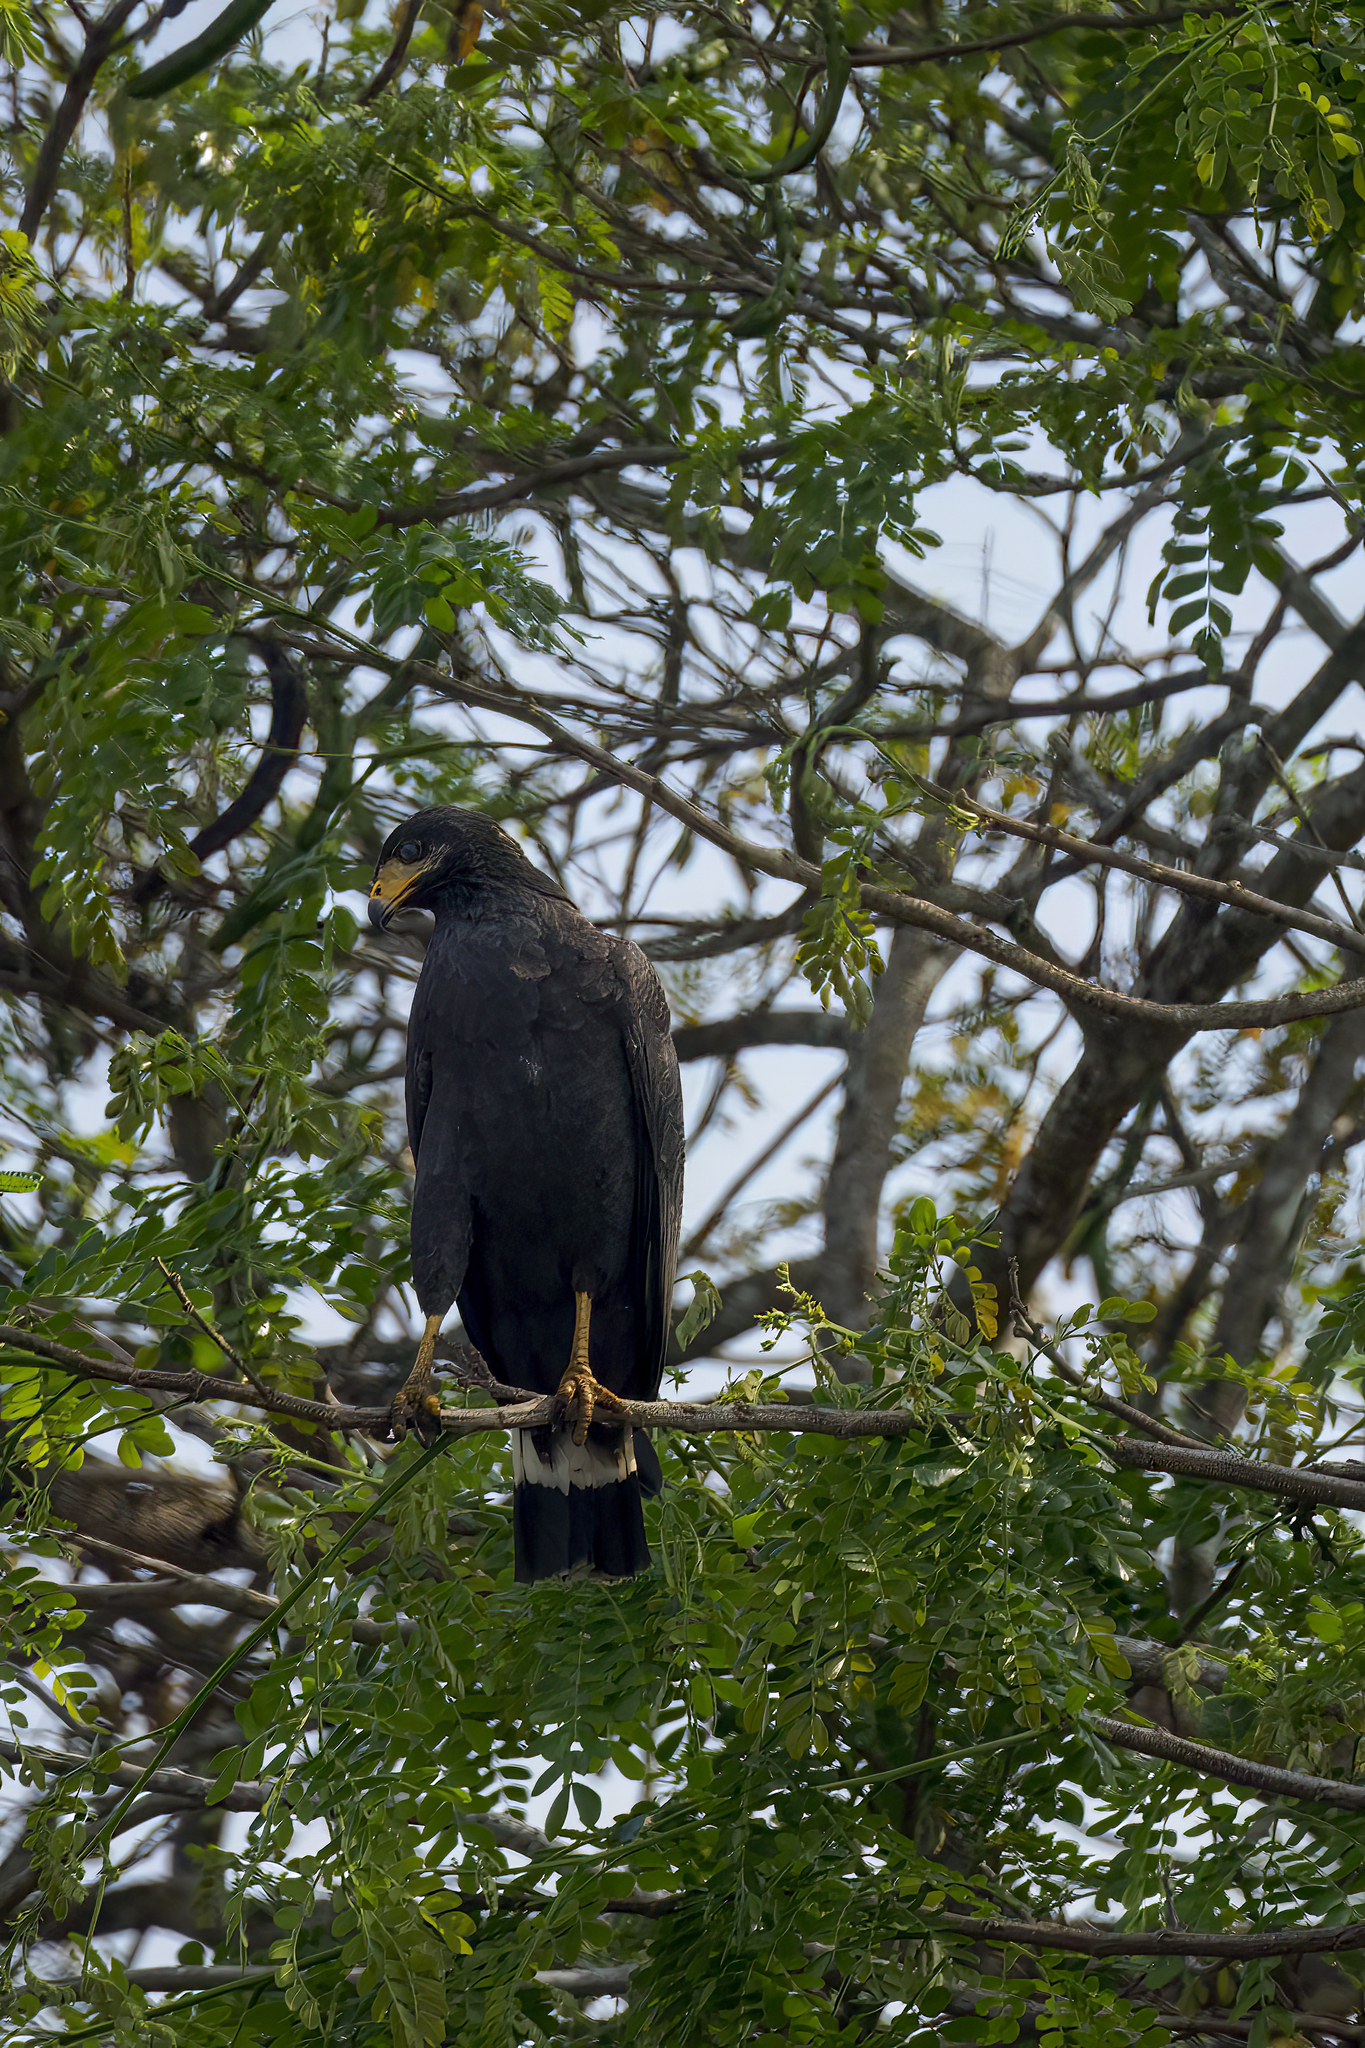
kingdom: Animalia
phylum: Chordata
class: Aves
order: Accipitriformes
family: Accipitridae
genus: Buteogallus
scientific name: Buteogallus urubitinga
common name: Great black hawk
